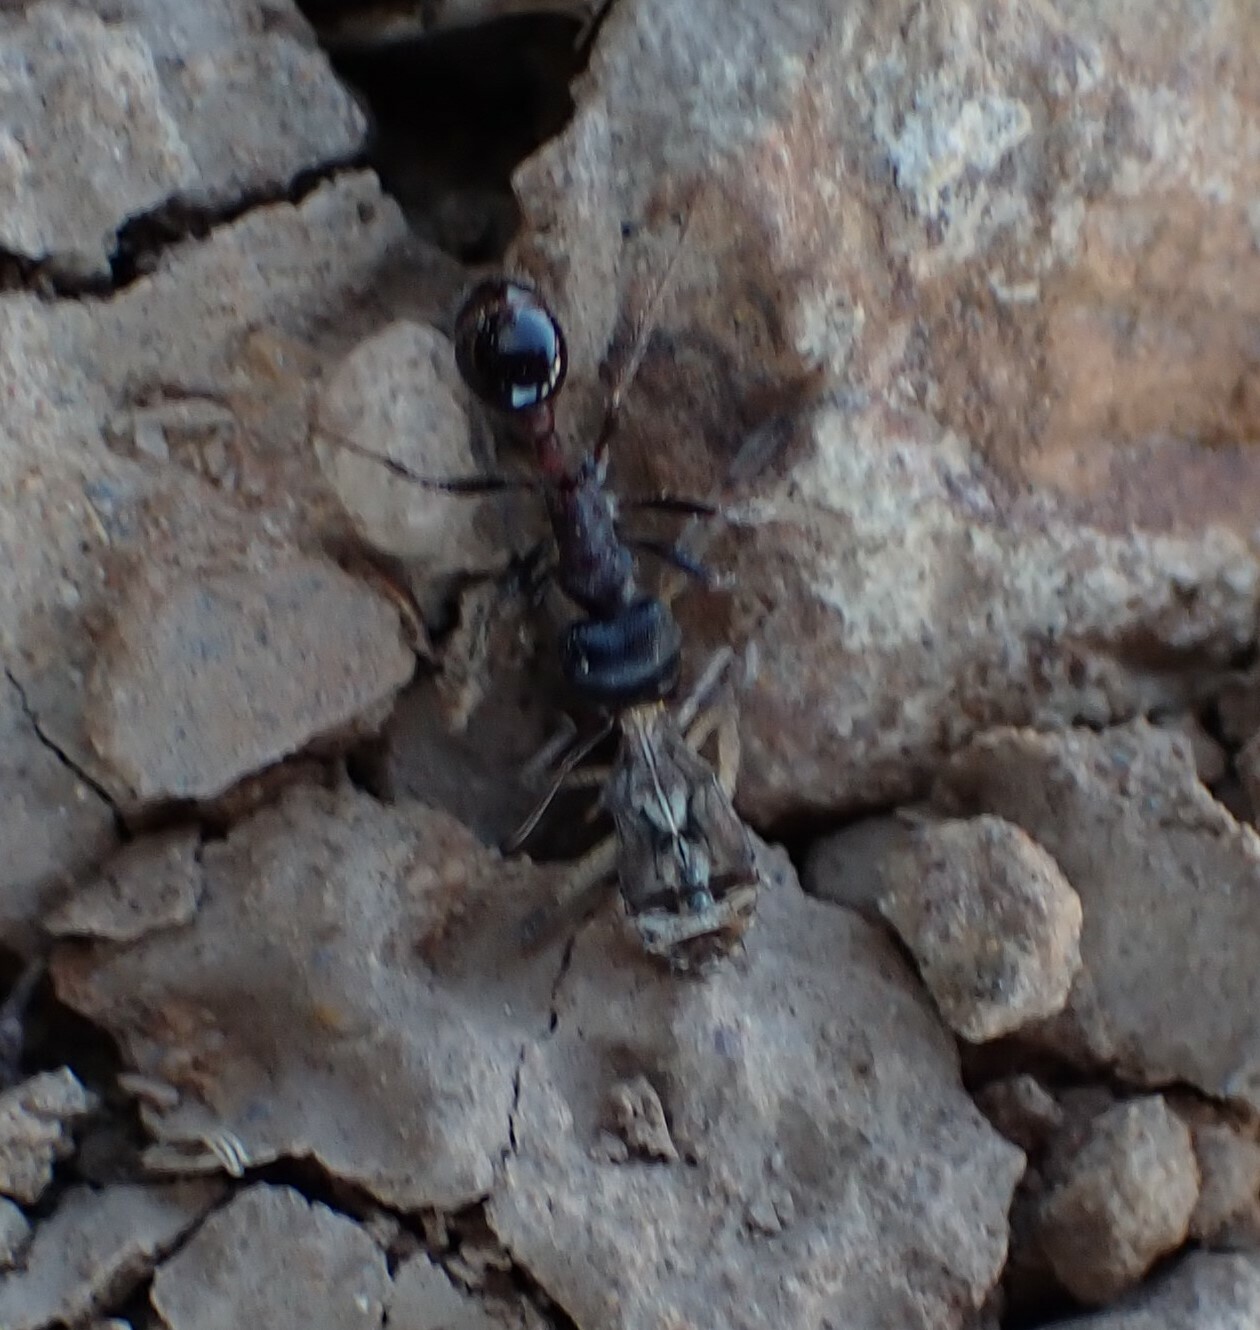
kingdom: Animalia
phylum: Arthropoda
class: Insecta
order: Hymenoptera
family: Formicidae
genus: Pogonomyrmex
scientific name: Pogonomyrmex rugosus
